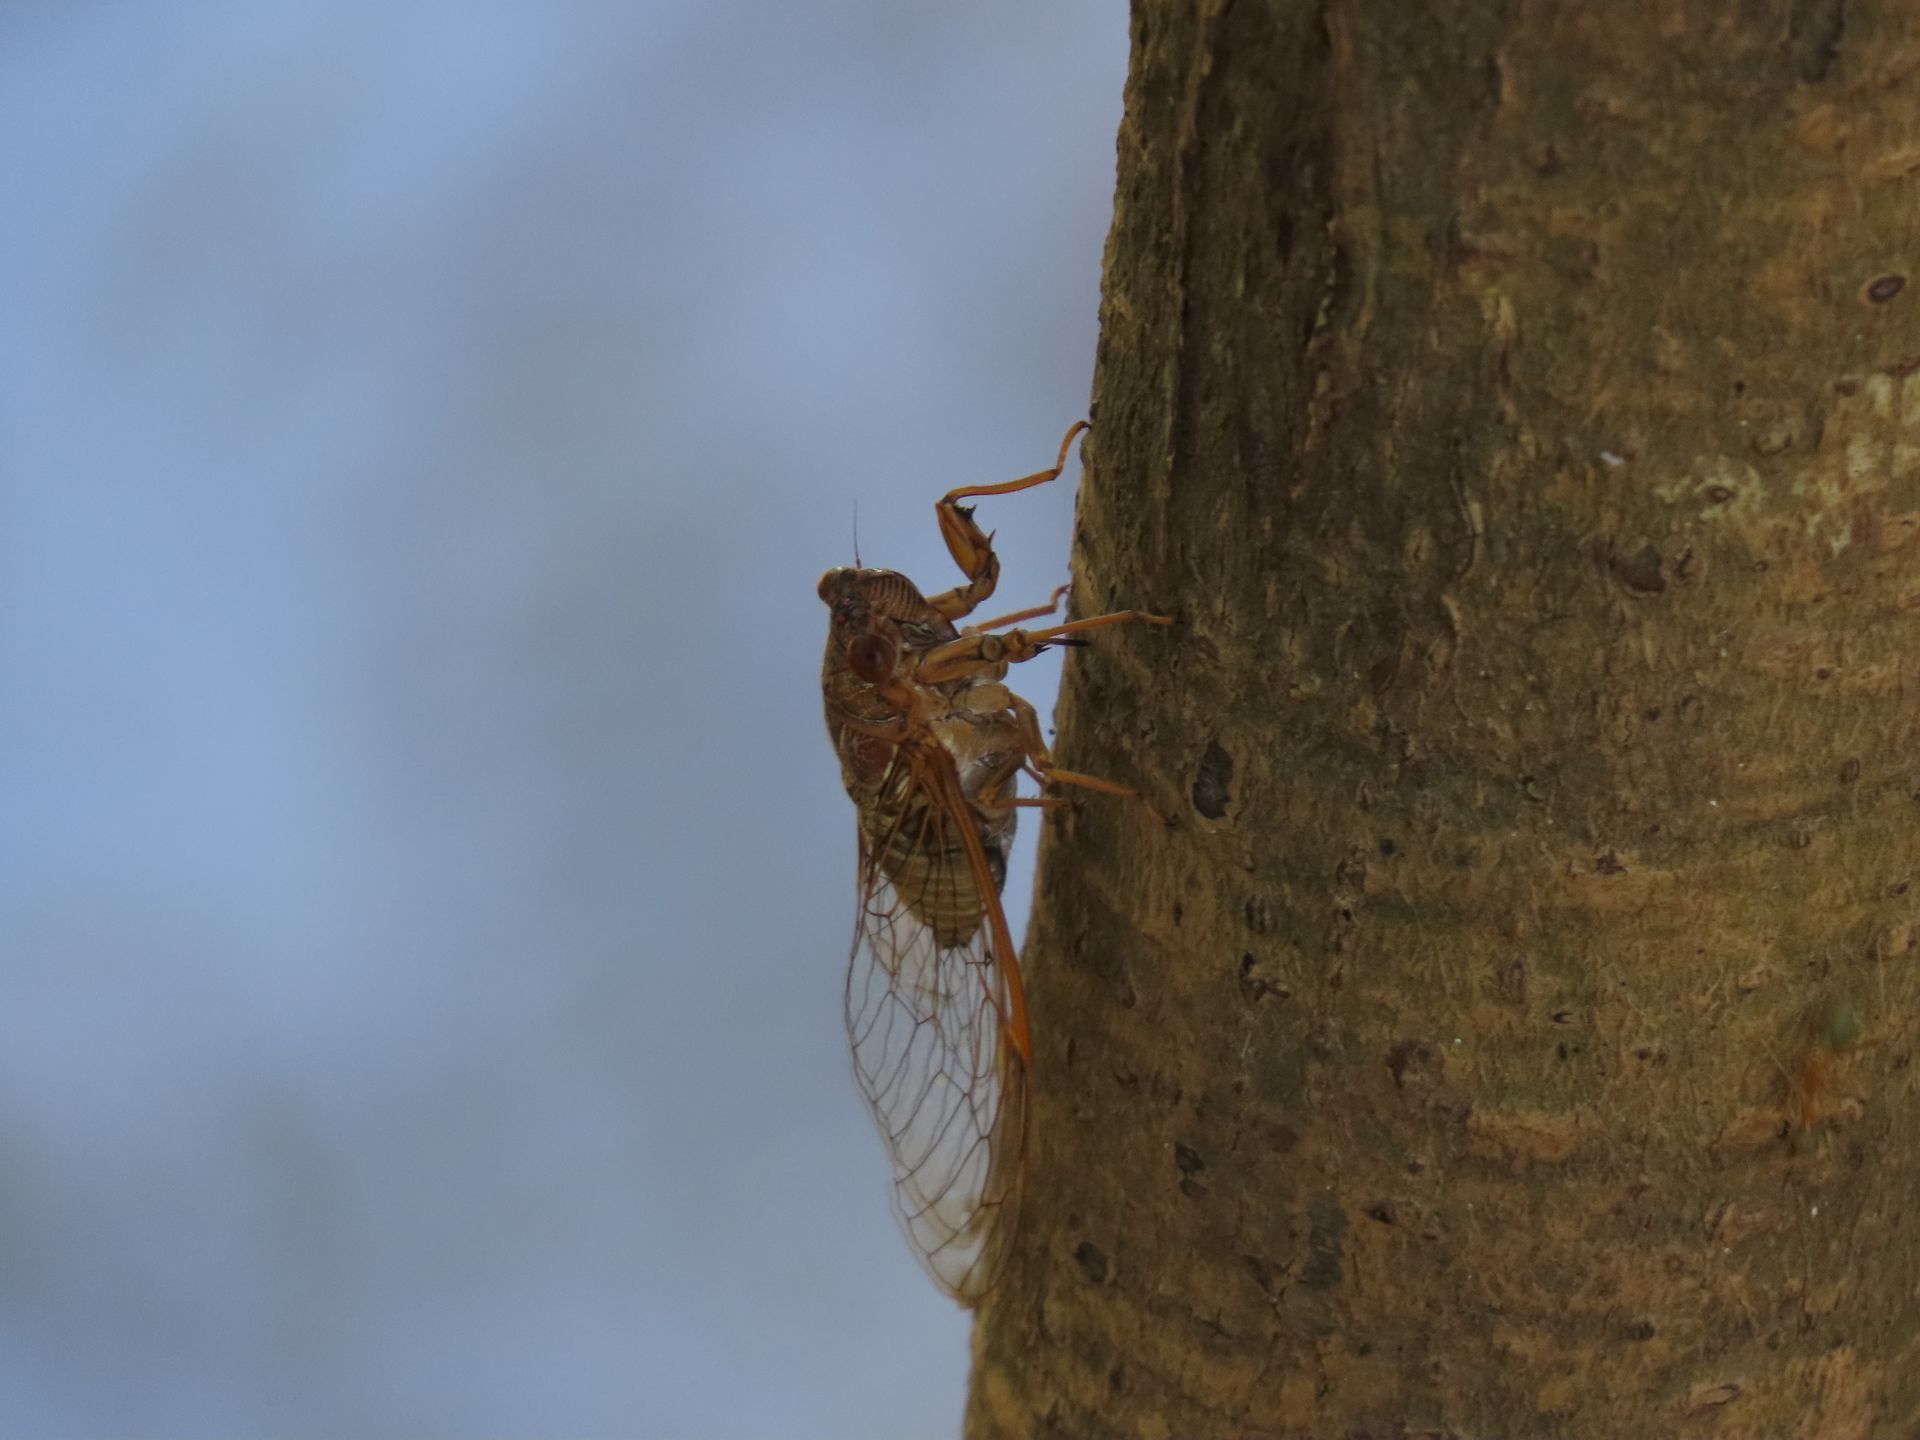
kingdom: Animalia
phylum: Arthropoda
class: Insecta
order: Hemiptera
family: Cicadidae
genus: Tamasa
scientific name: Tamasa doddi
